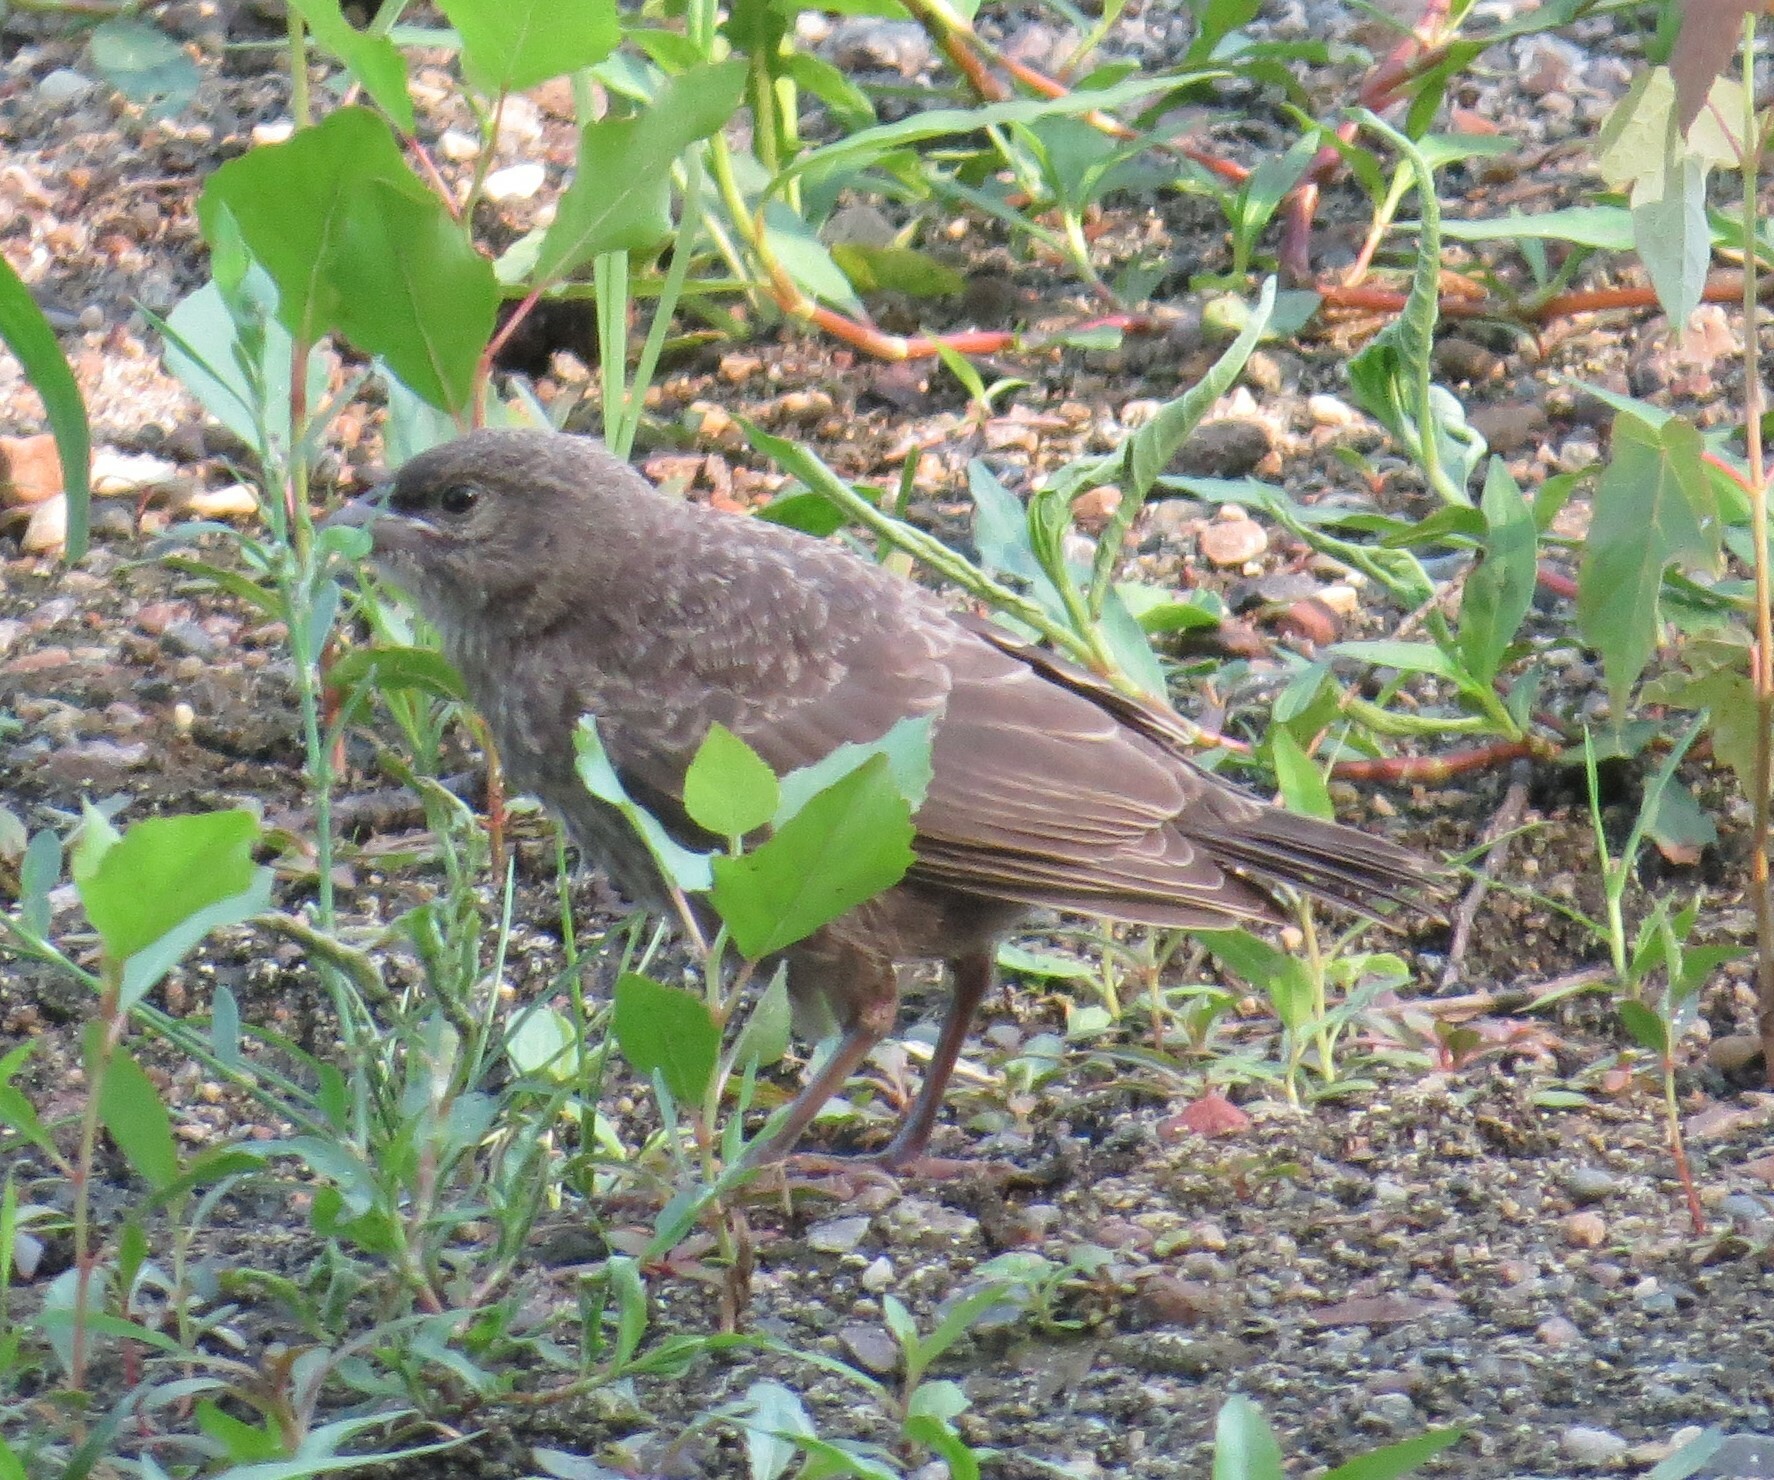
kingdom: Animalia
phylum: Chordata
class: Aves
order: Passeriformes
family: Icteridae
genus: Molothrus
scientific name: Molothrus ater
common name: Brown-headed cowbird
